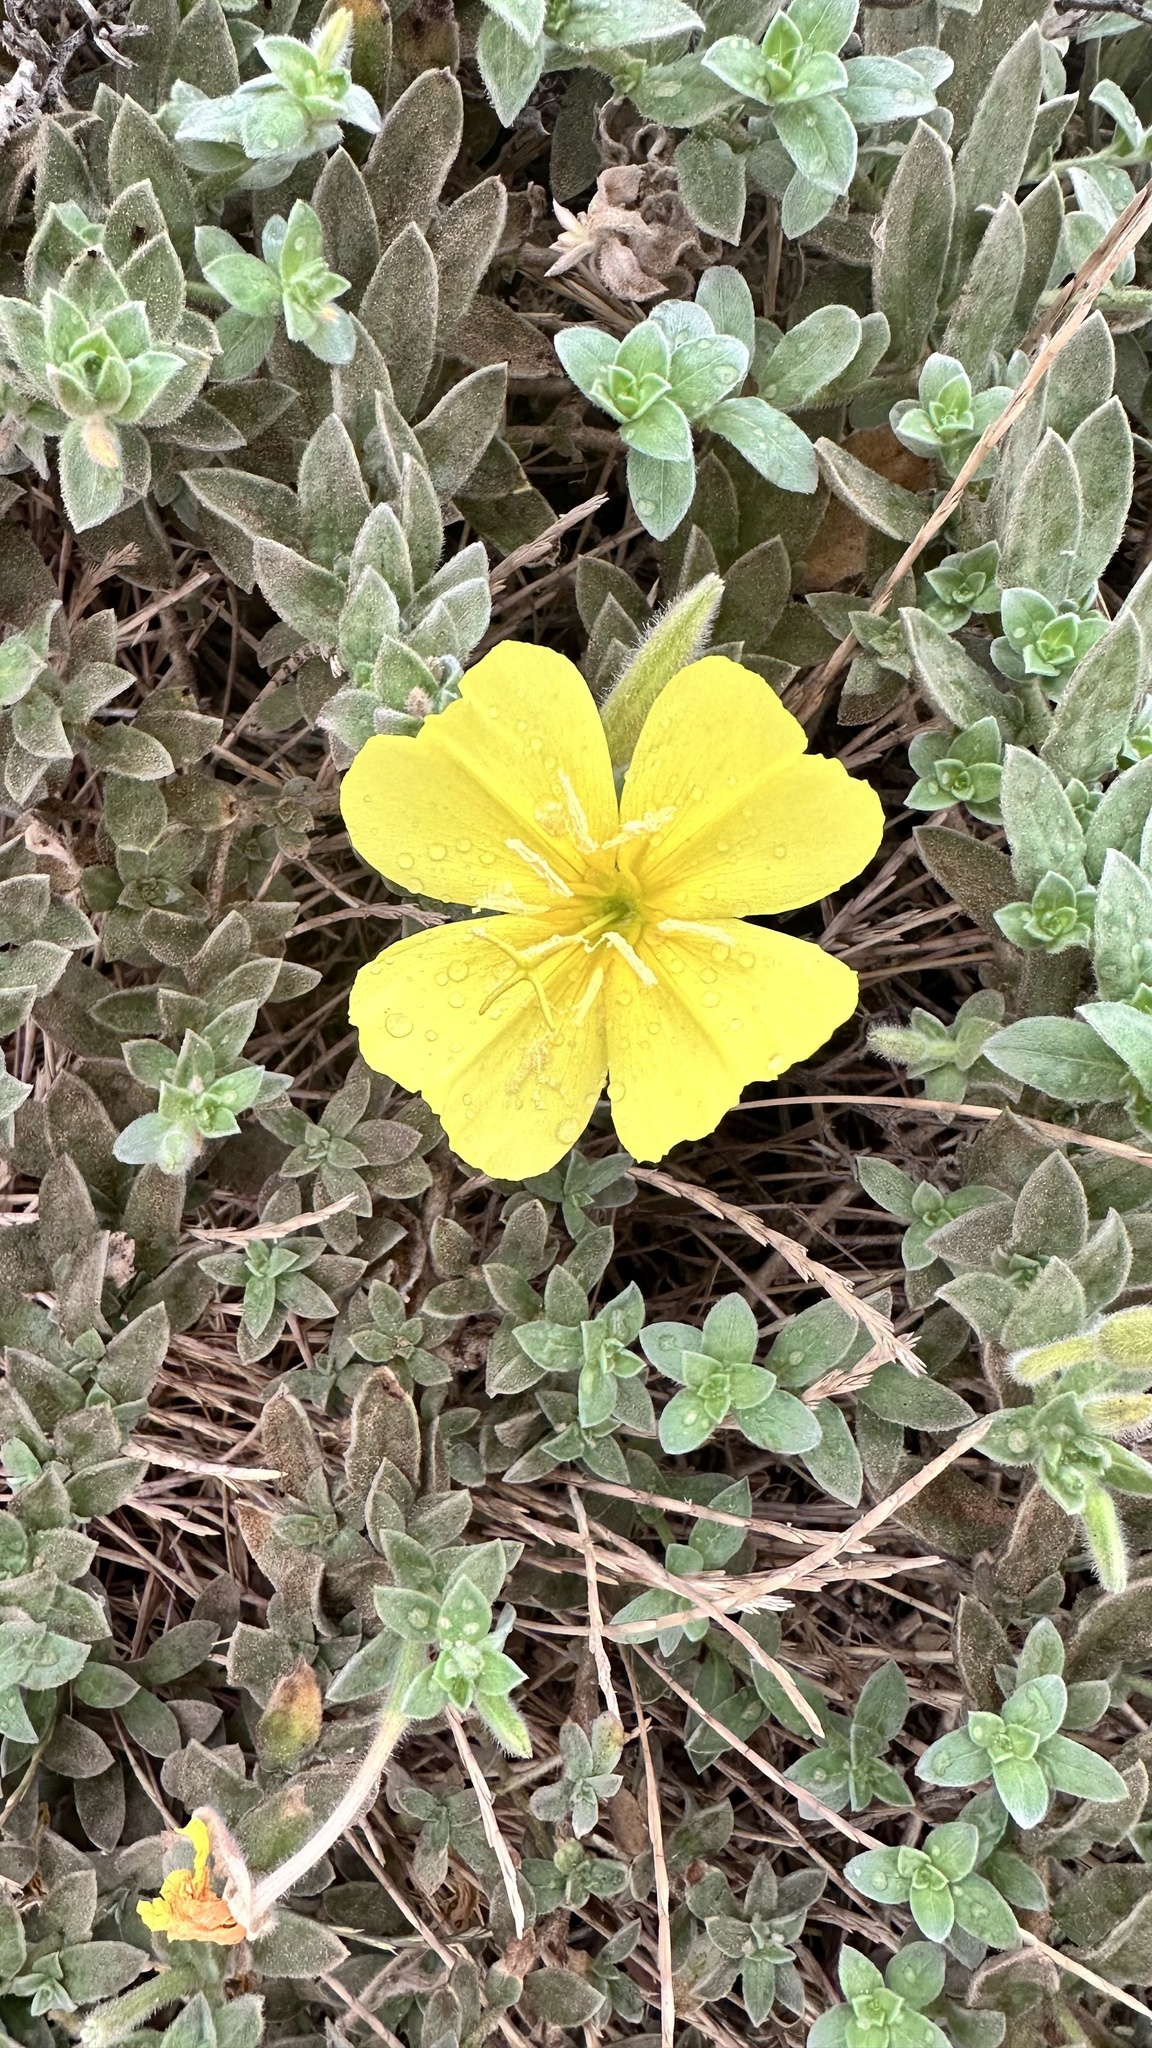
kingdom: Plantae
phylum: Tracheophyta
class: Magnoliopsida
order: Myrtales
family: Onagraceae
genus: Oenothera
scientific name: Oenothera drummondii
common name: Beach evening-primrose
